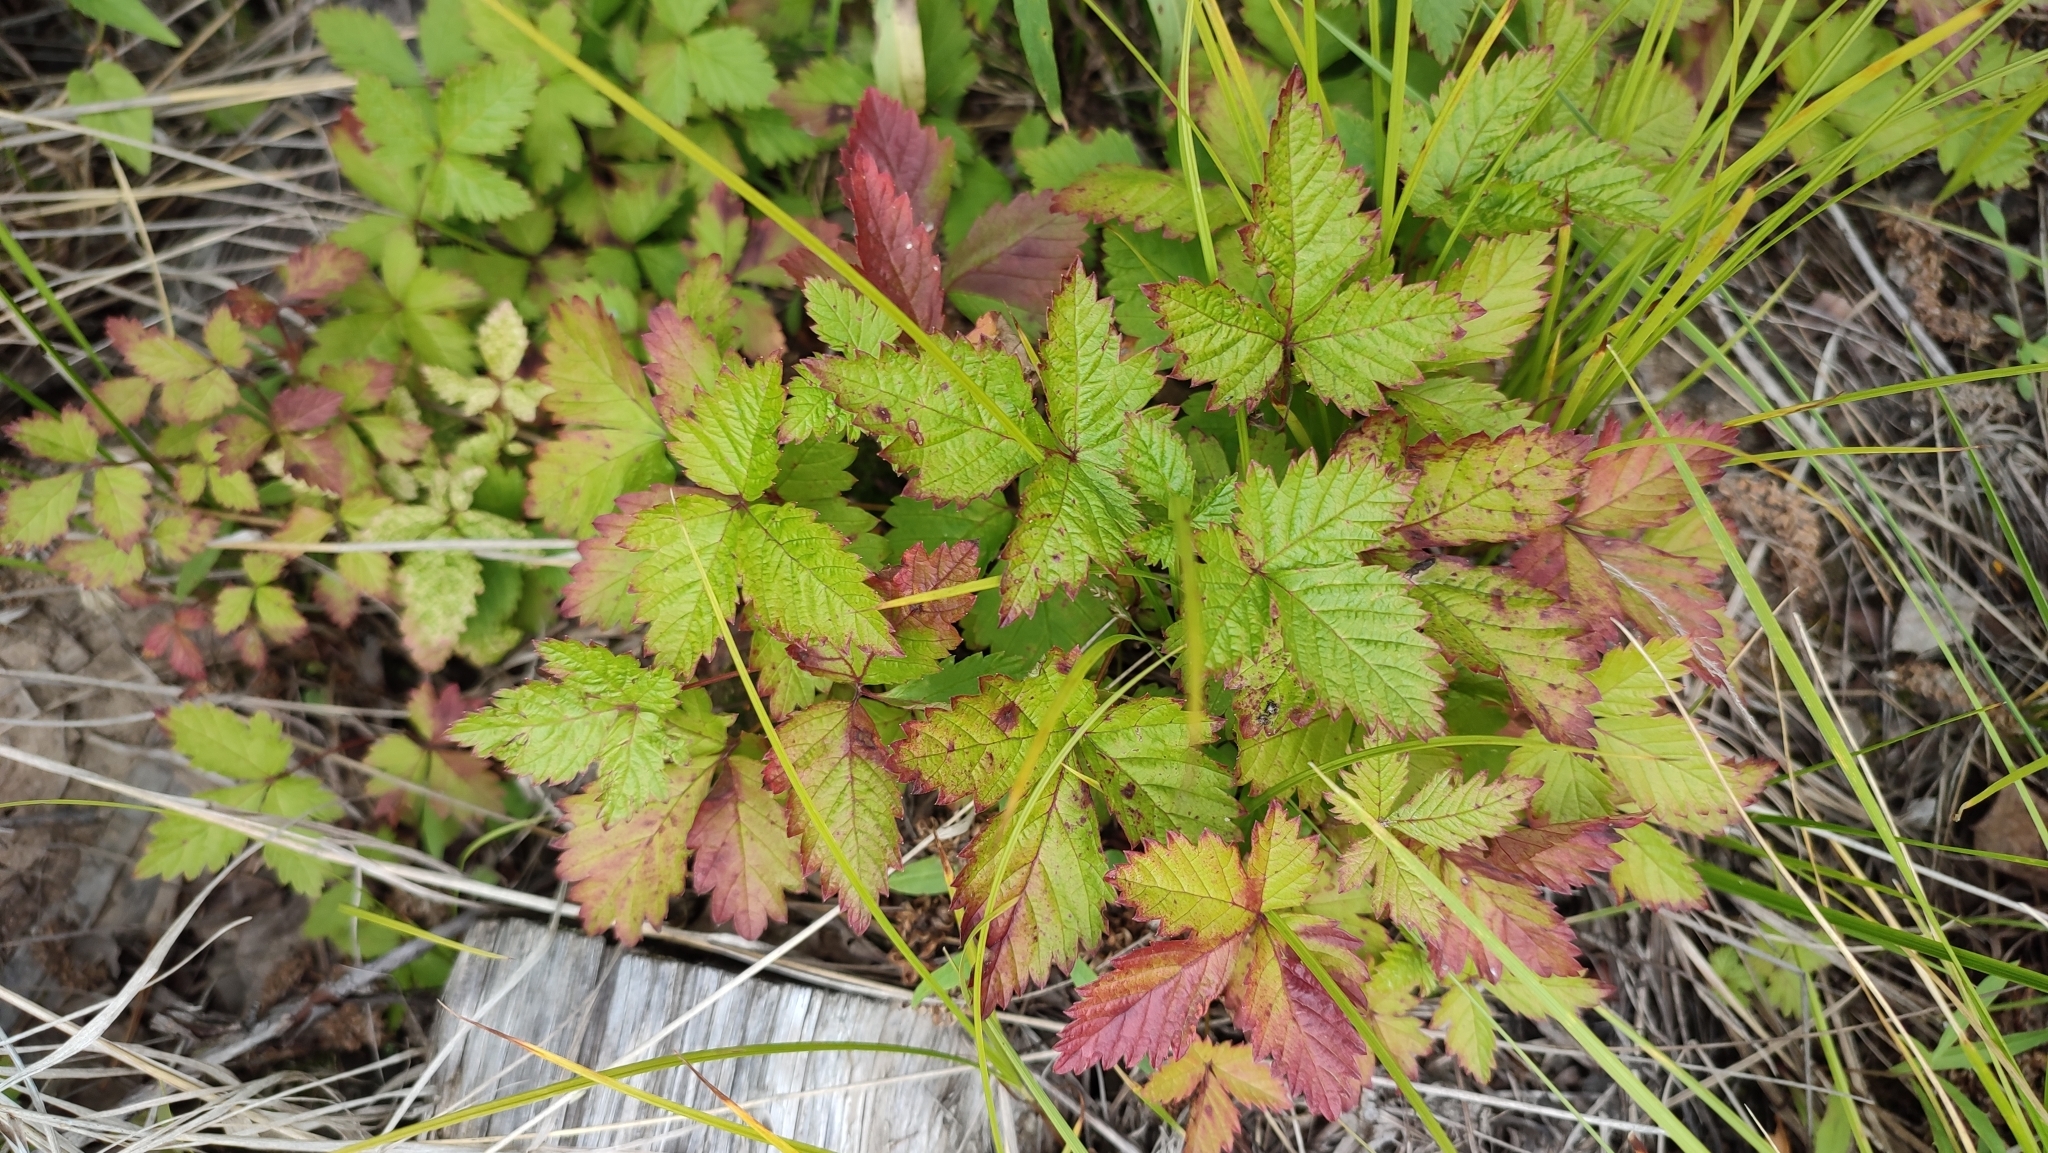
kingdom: Plantae
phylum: Tracheophyta
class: Magnoliopsida
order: Rosales
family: Rosaceae
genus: Rubus
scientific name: Rubus arcticus
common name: Arctic bramble
